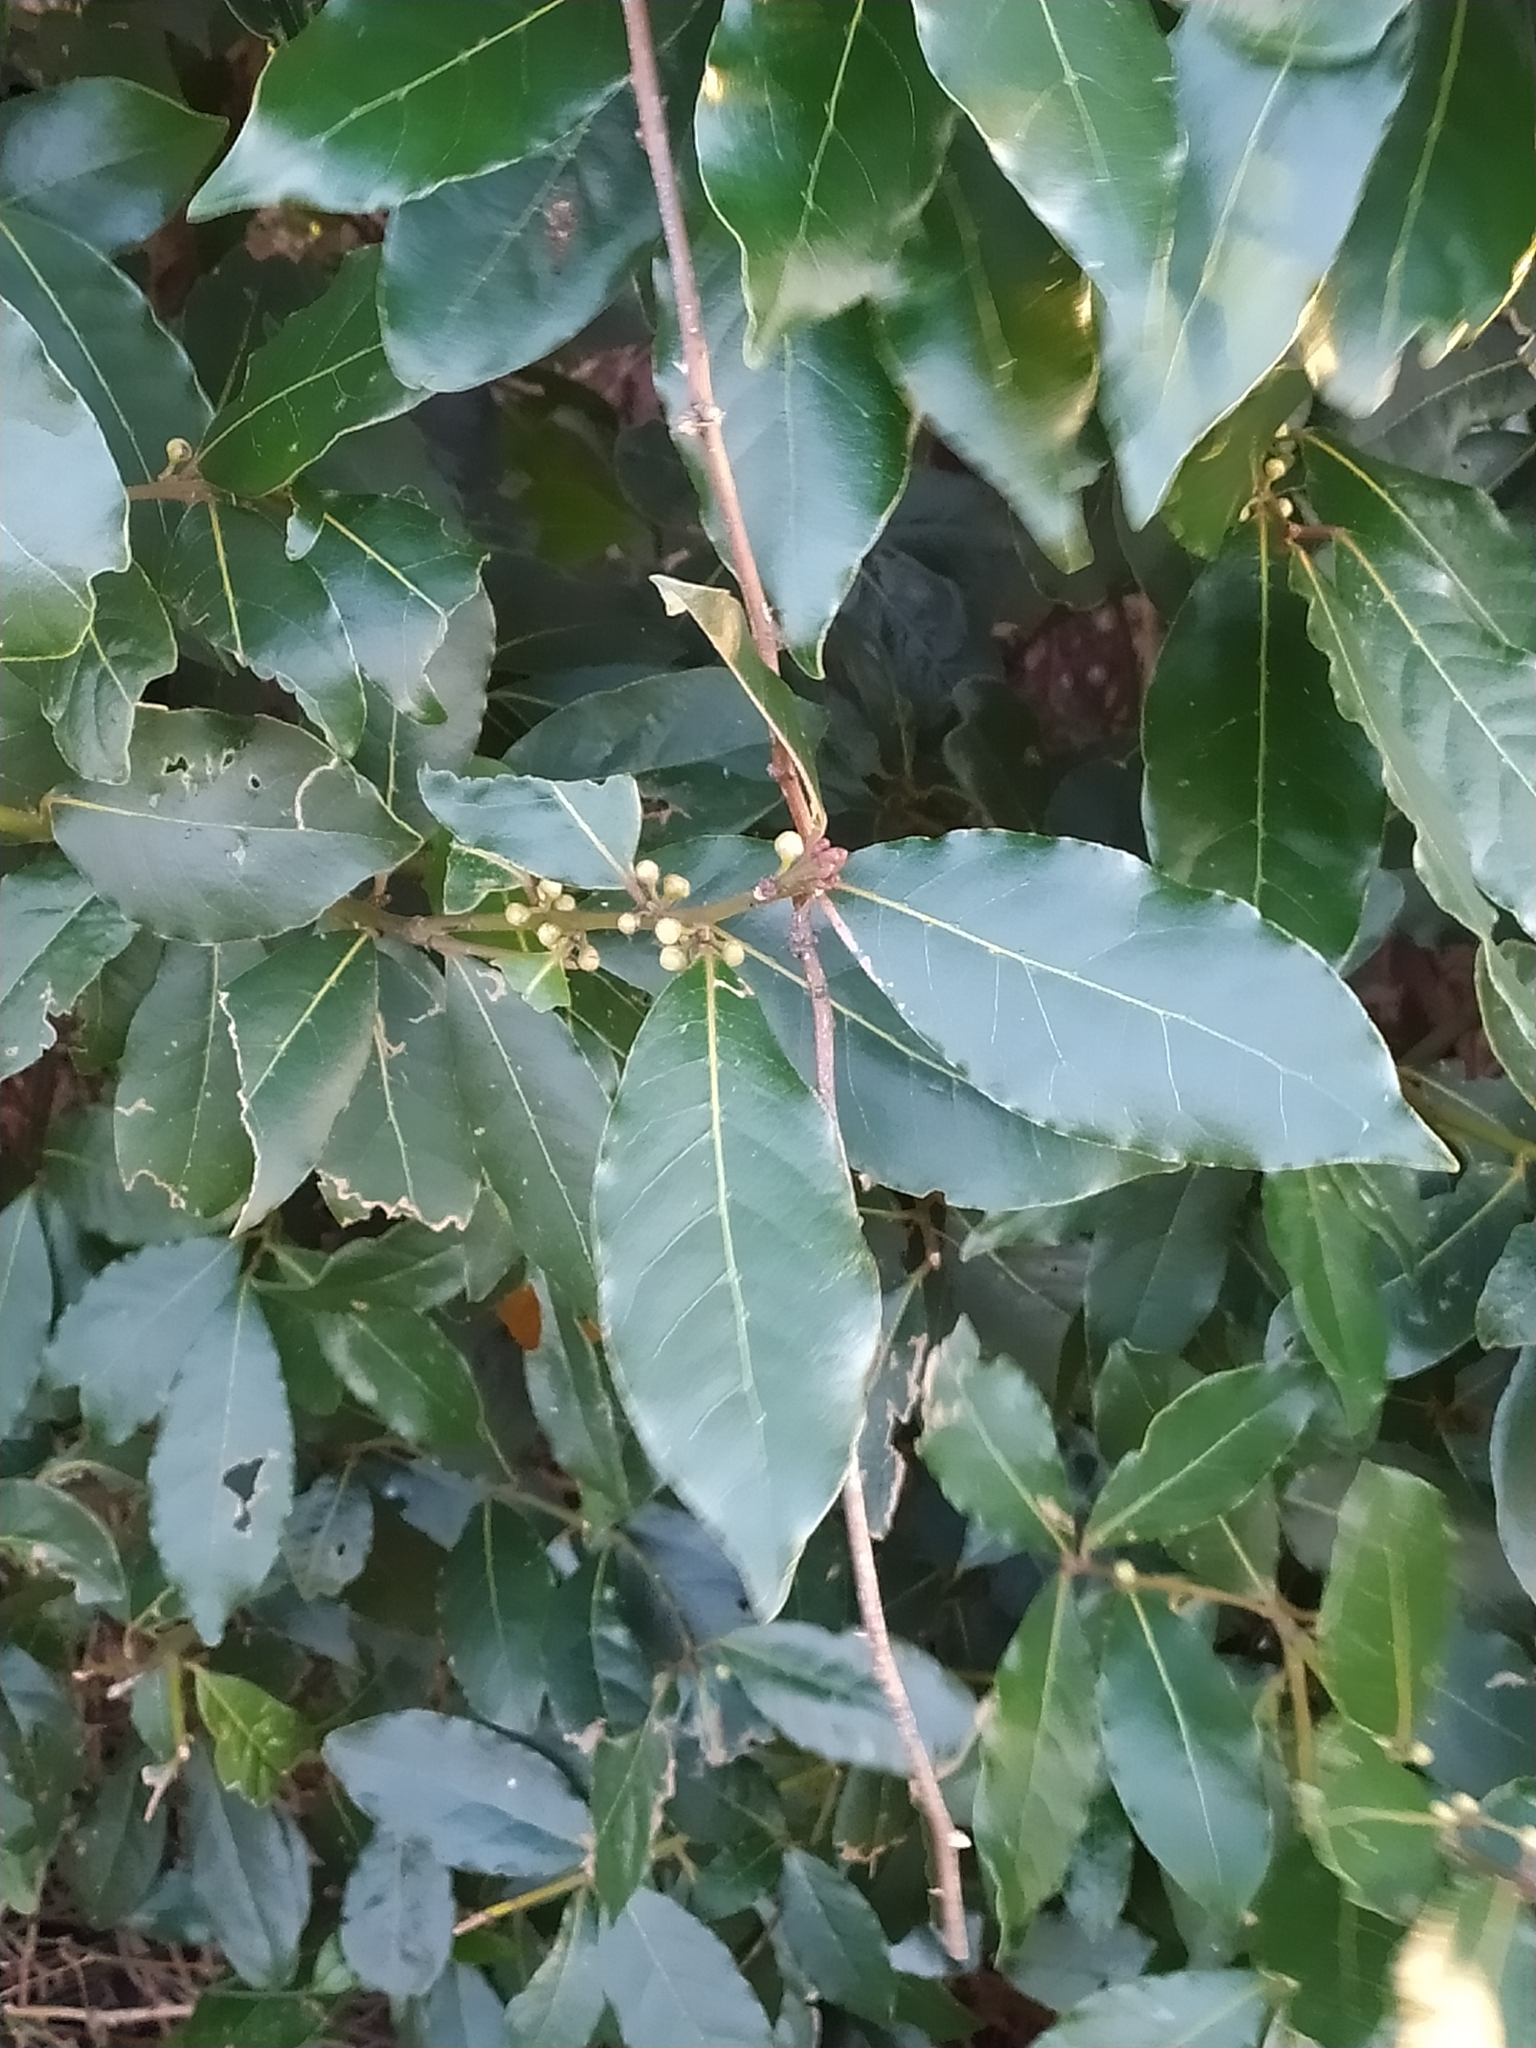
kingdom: Plantae
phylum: Tracheophyta
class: Magnoliopsida
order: Laurales
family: Lauraceae
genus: Laurus
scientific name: Laurus nobilis
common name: Bay
